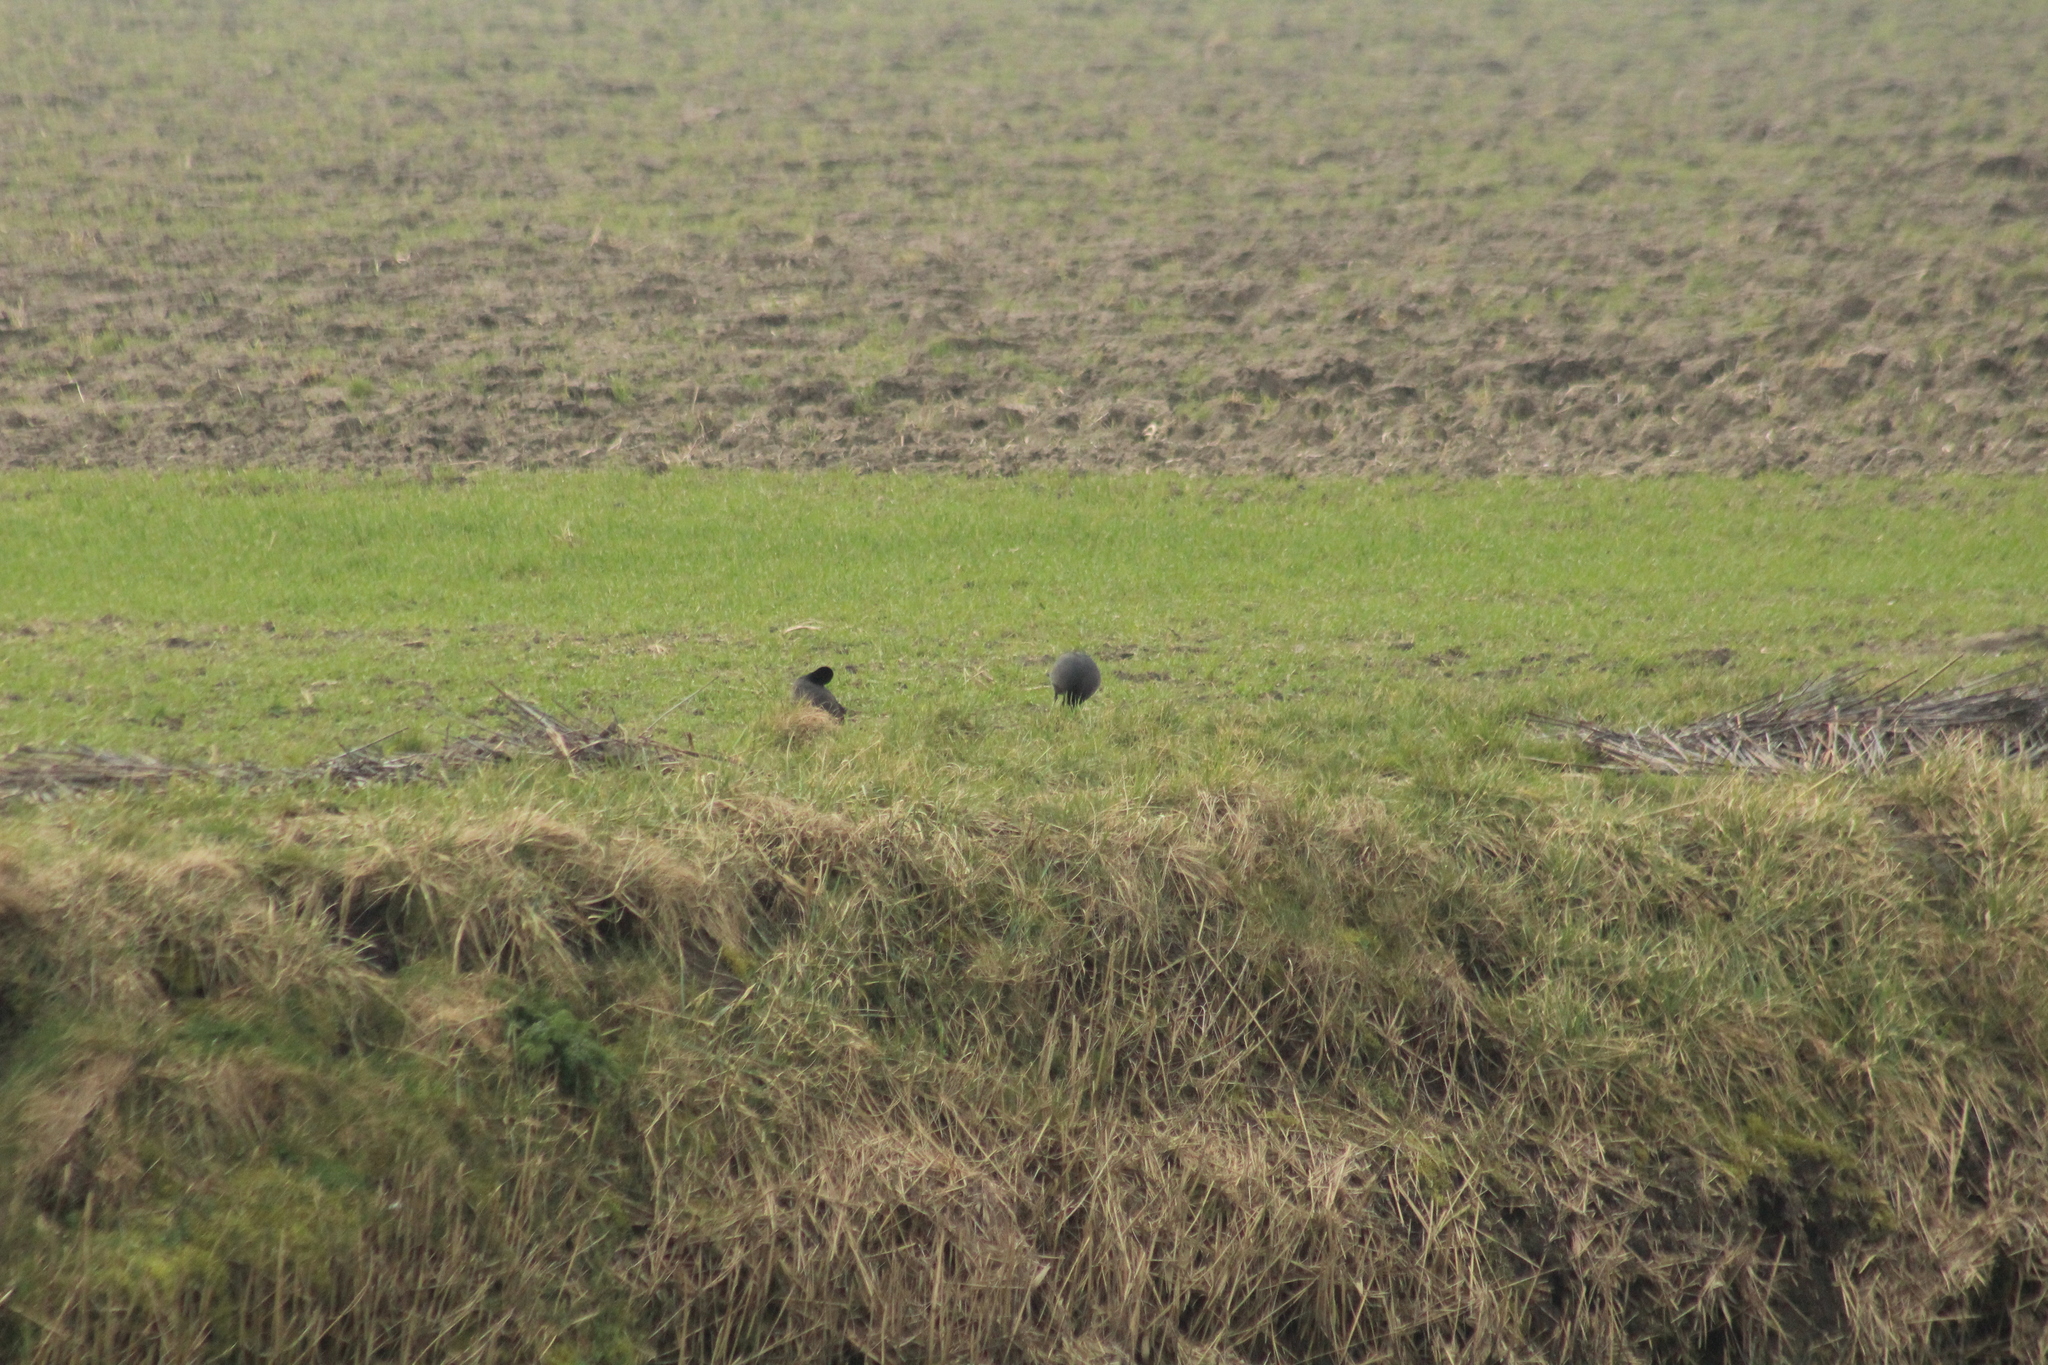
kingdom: Animalia
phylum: Chordata
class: Aves
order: Gruiformes
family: Rallidae
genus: Fulica
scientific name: Fulica atra
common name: Eurasian coot
